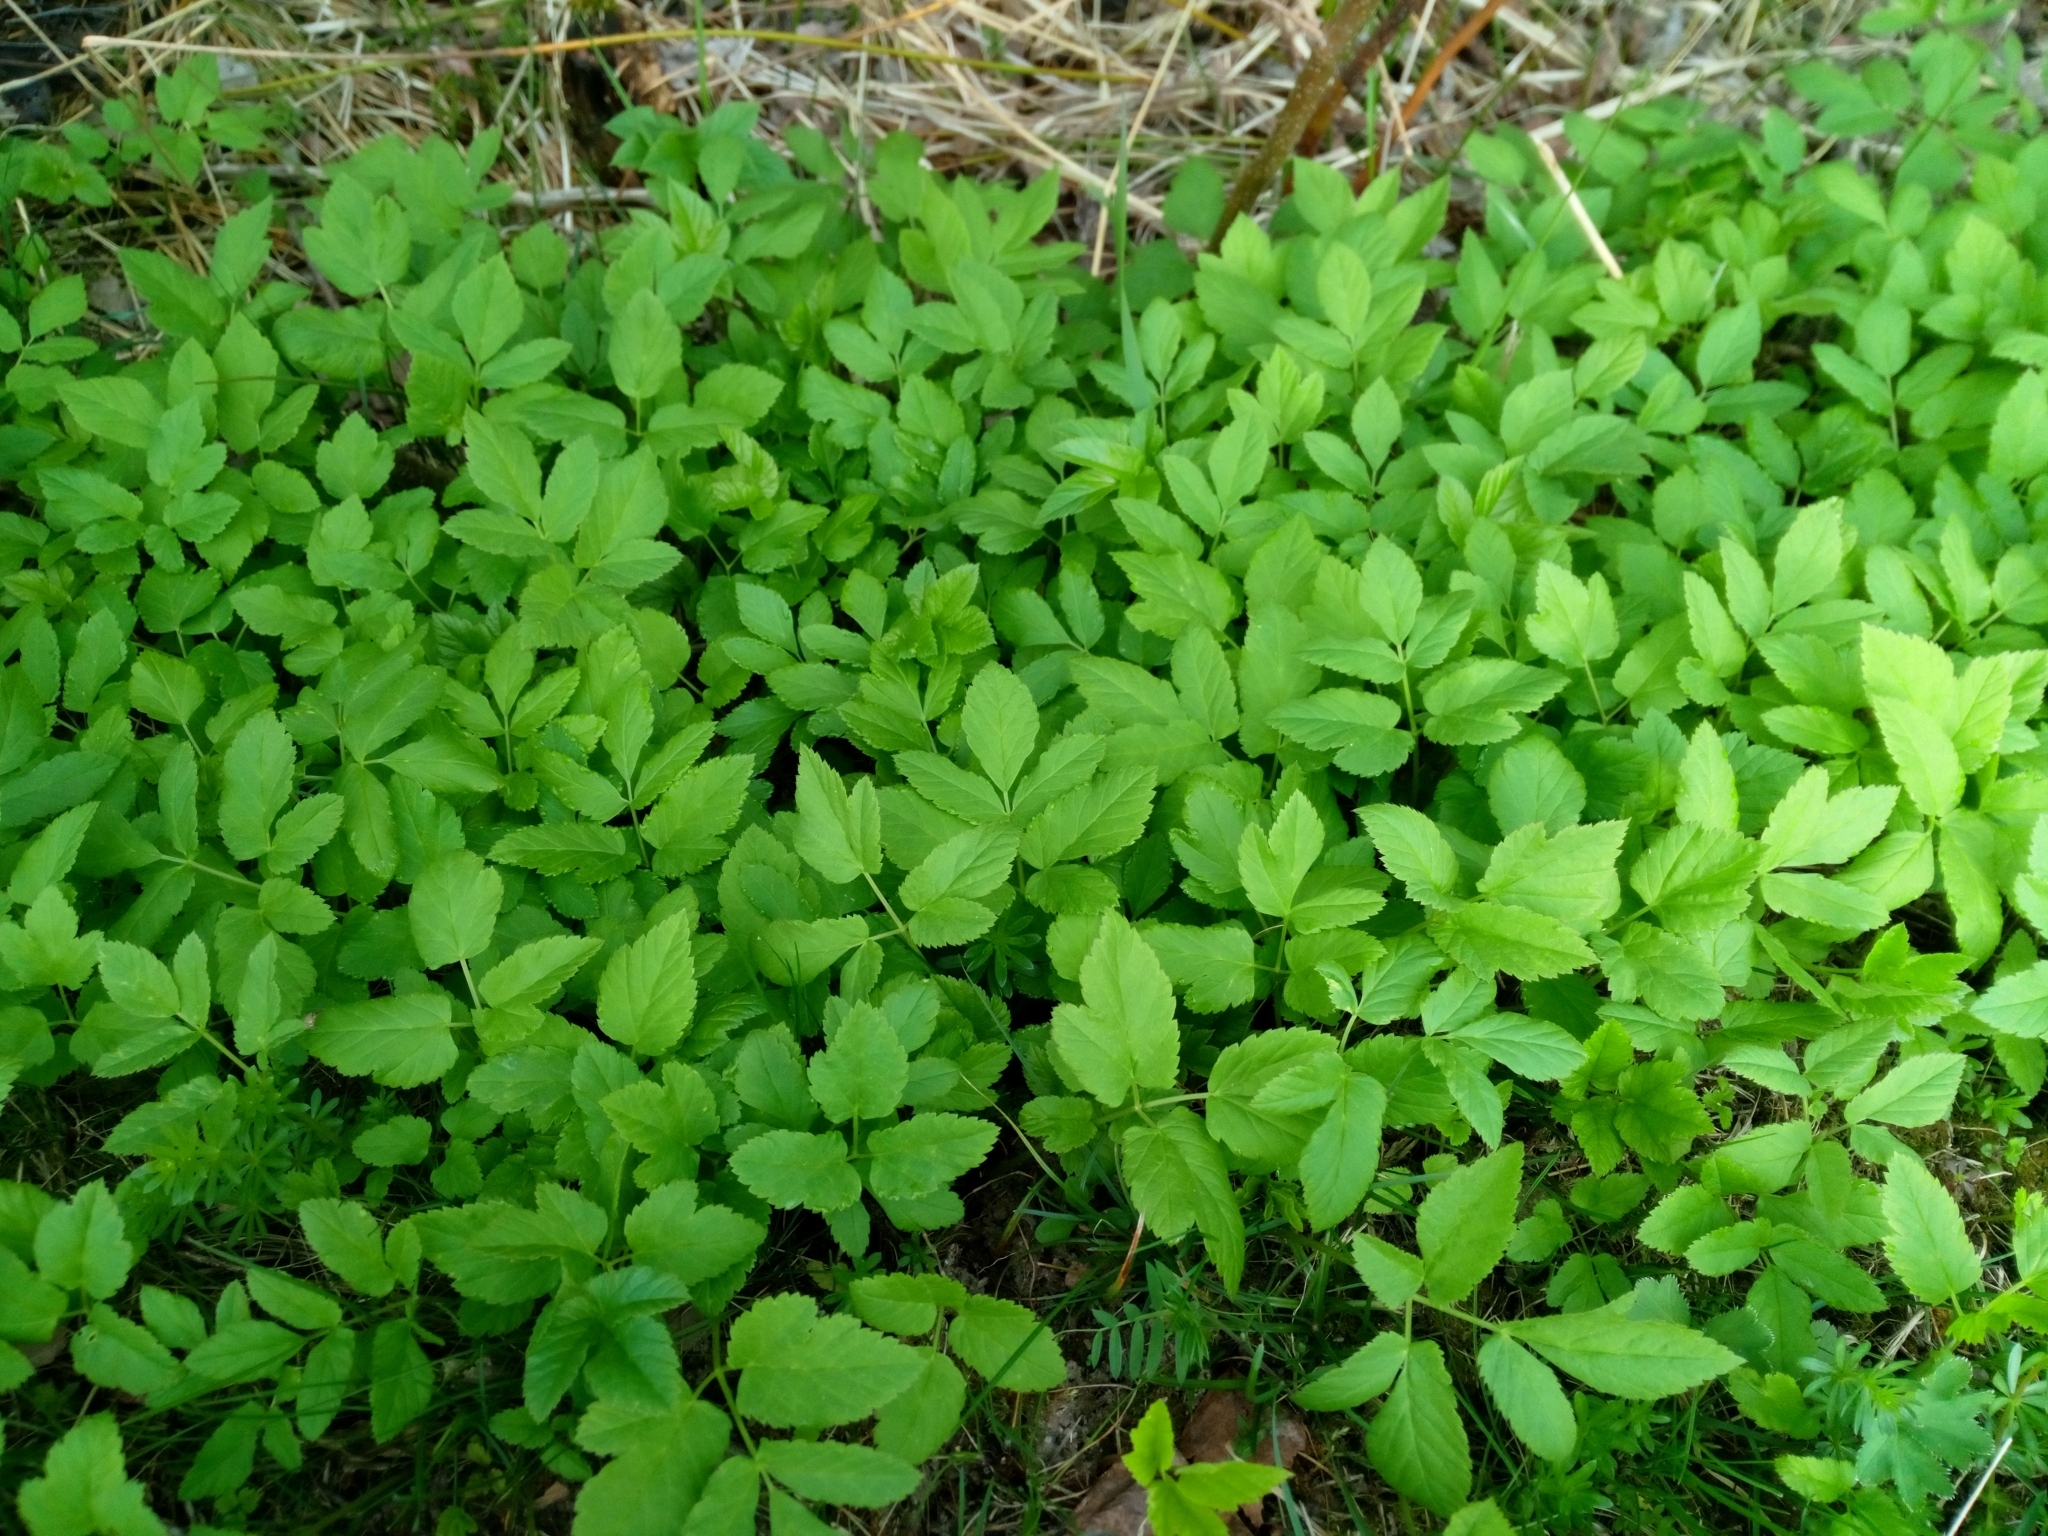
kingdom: Plantae
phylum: Tracheophyta
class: Magnoliopsida
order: Apiales
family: Apiaceae
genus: Aegopodium
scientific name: Aegopodium podagraria
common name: Ground-elder
